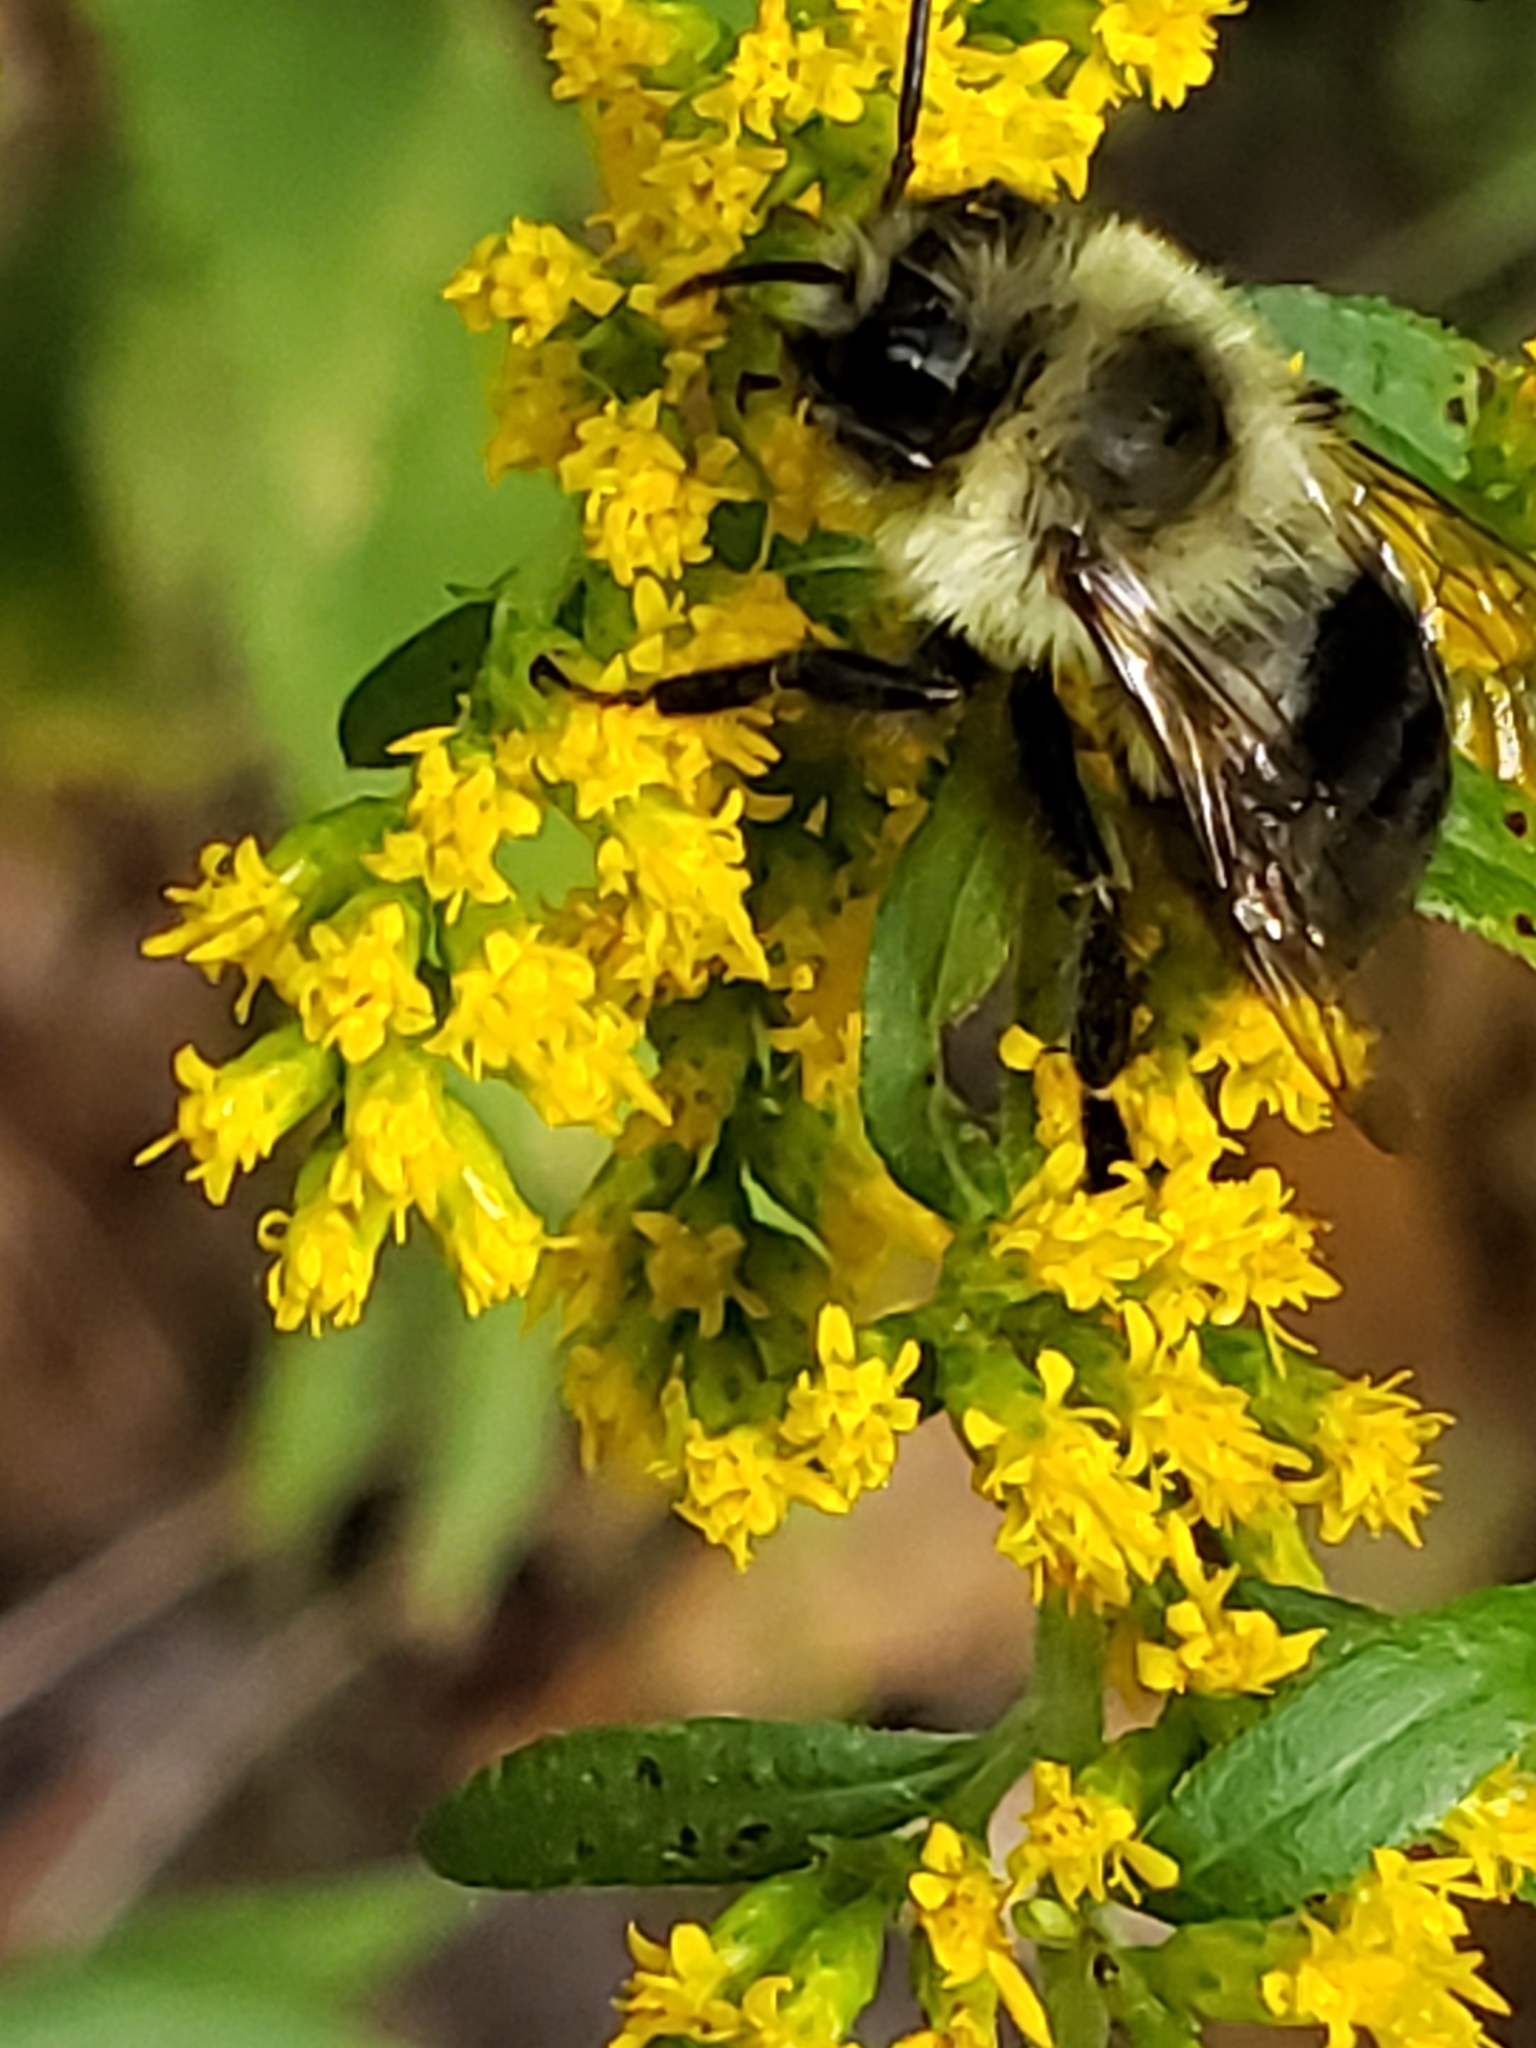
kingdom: Animalia
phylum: Arthropoda
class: Insecta
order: Hymenoptera
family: Apidae
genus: Bombus
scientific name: Bombus impatiens
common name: Common eastern bumble bee
